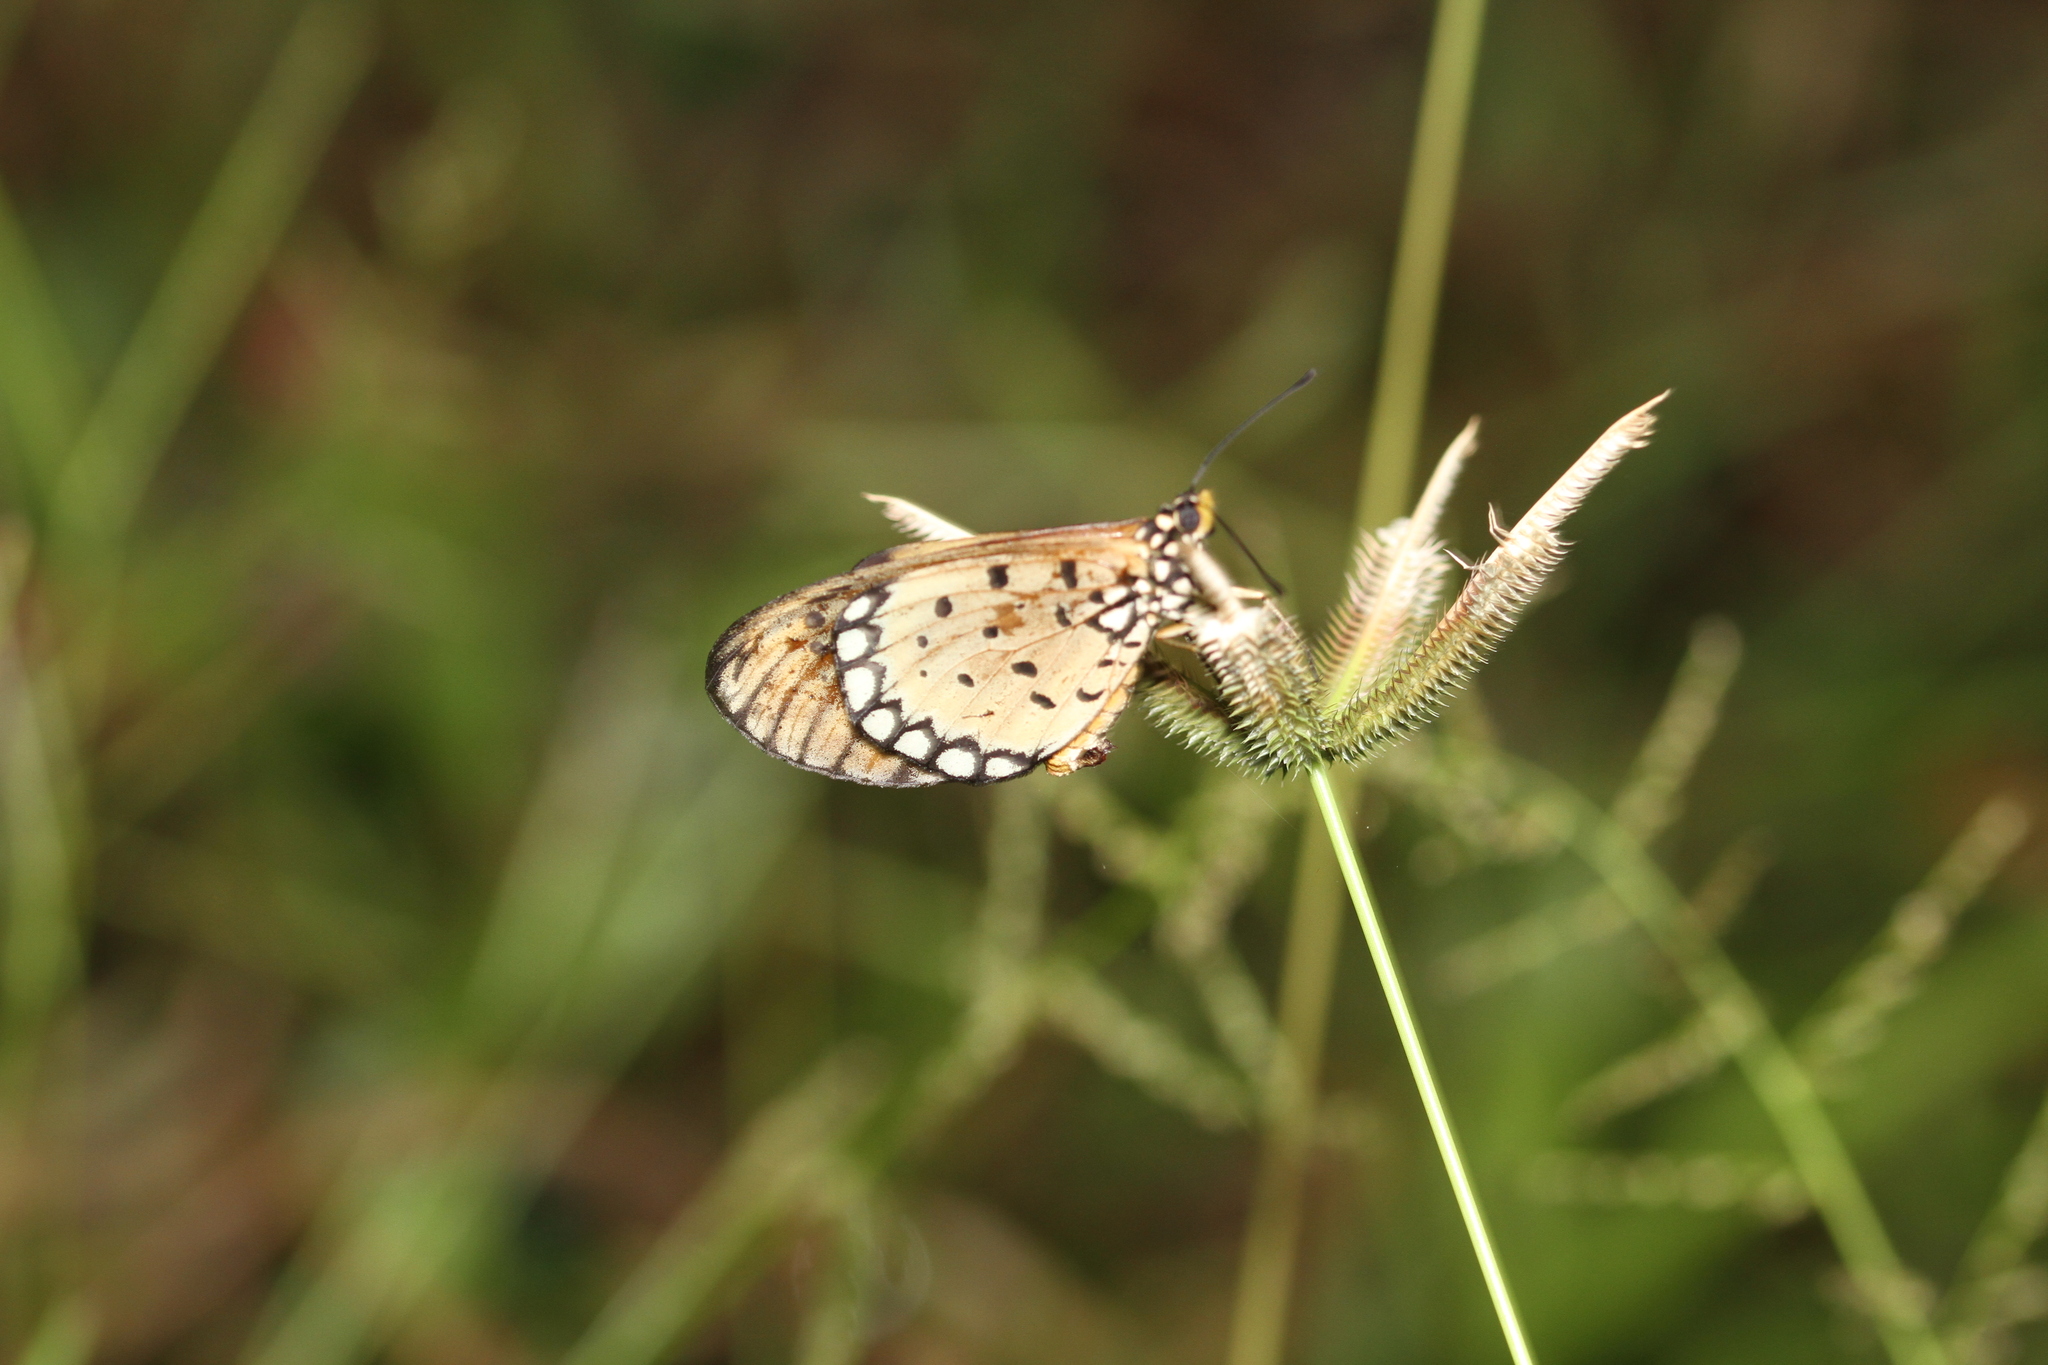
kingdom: Animalia
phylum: Arthropoda
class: Insecta
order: Lepidoptera
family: Nymphalidae
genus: Acraea
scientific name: Acraea terpsicore
